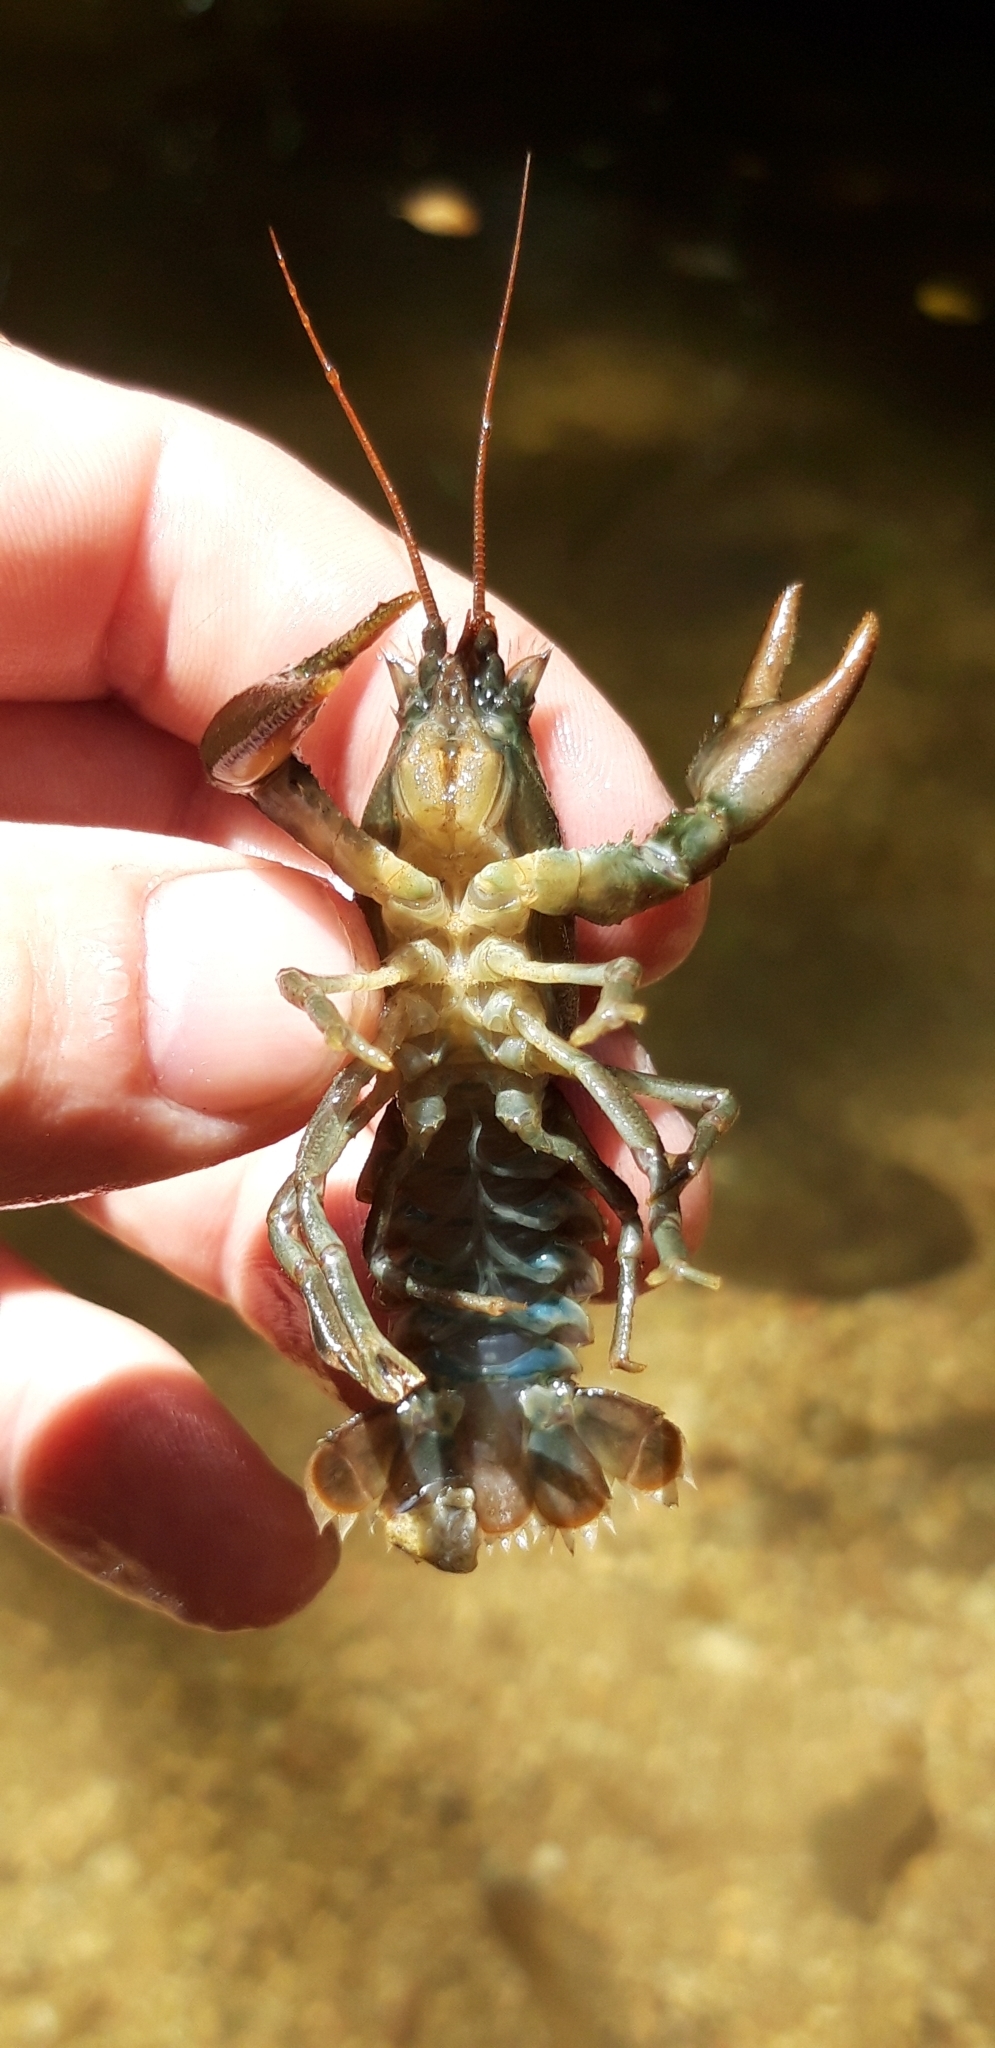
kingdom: Animalia
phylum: Arthropoda
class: Malacostraca
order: Decapoda
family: Astacidae
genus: Austropotamobius
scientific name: Austropotamobius pallipes
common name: White-clawed crayfish
